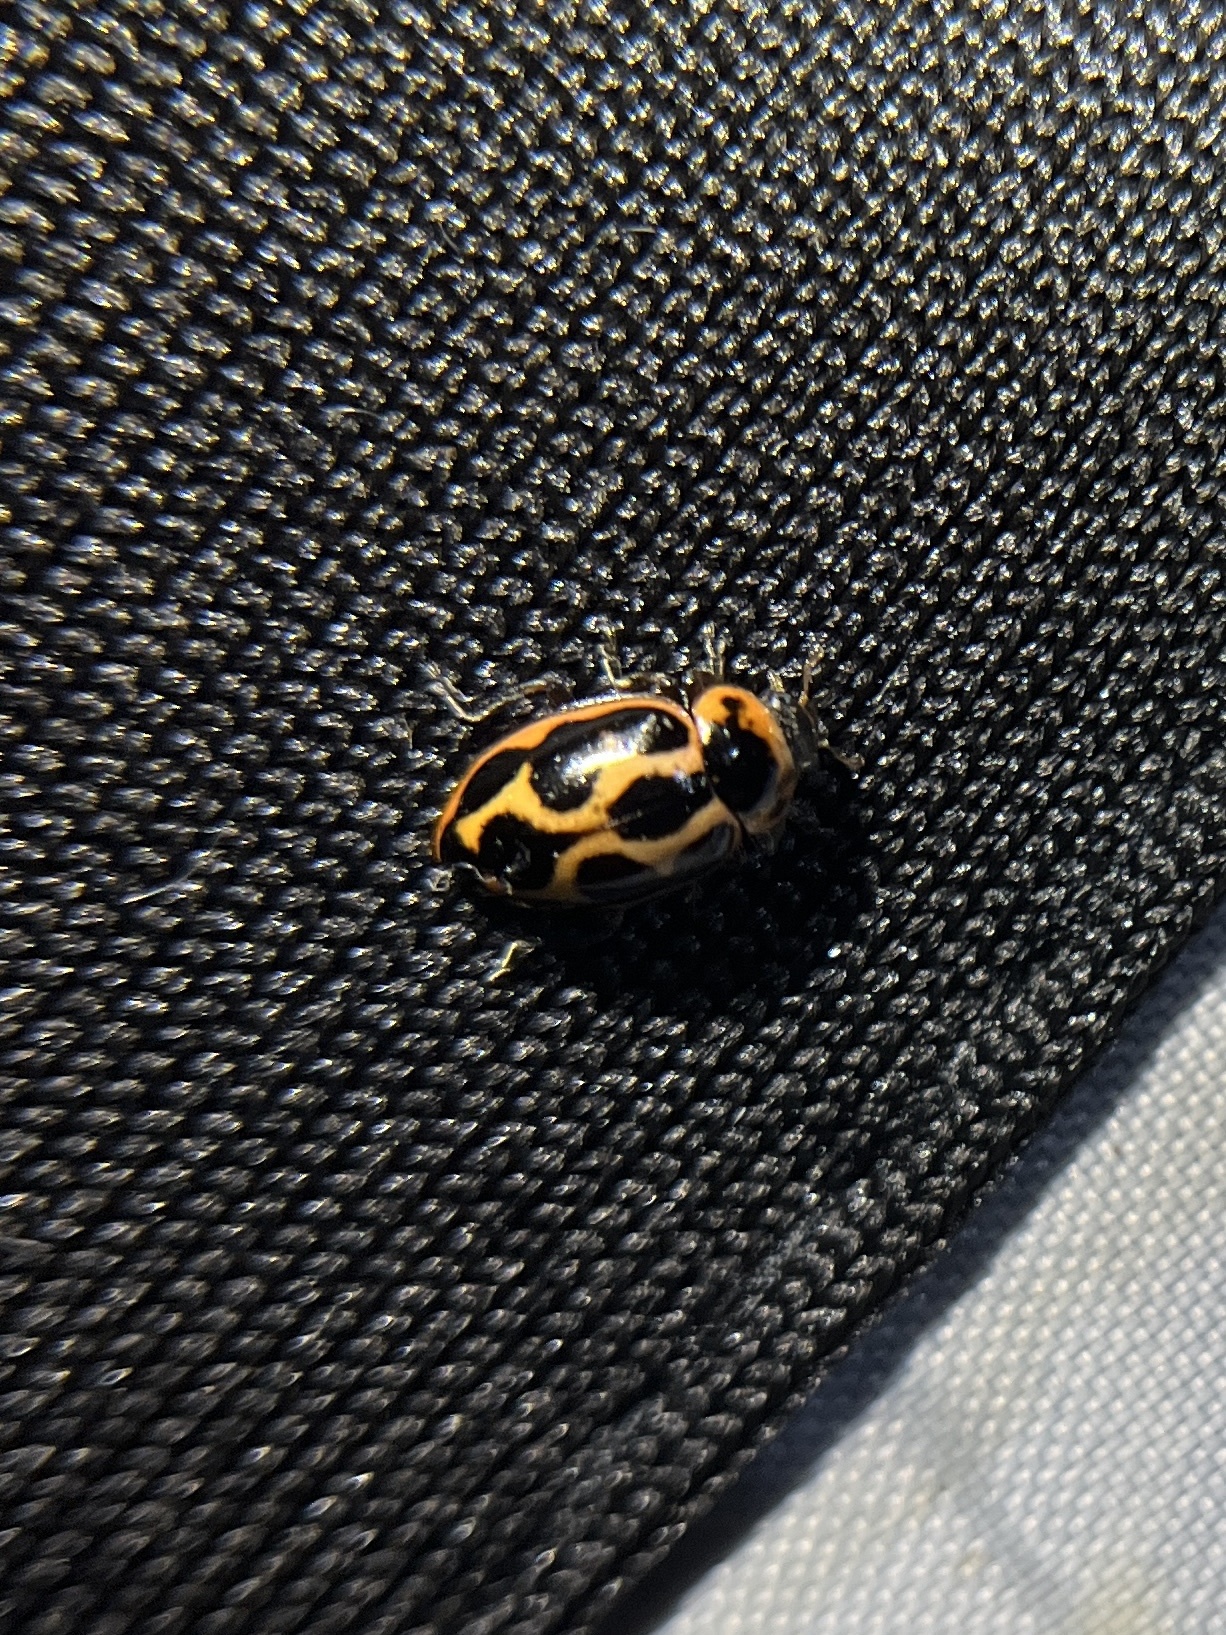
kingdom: Animalia
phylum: Arthropoda
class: Insecta
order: Coleoptera
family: Coccinellidae
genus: Naemia
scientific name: Naemia seriata
